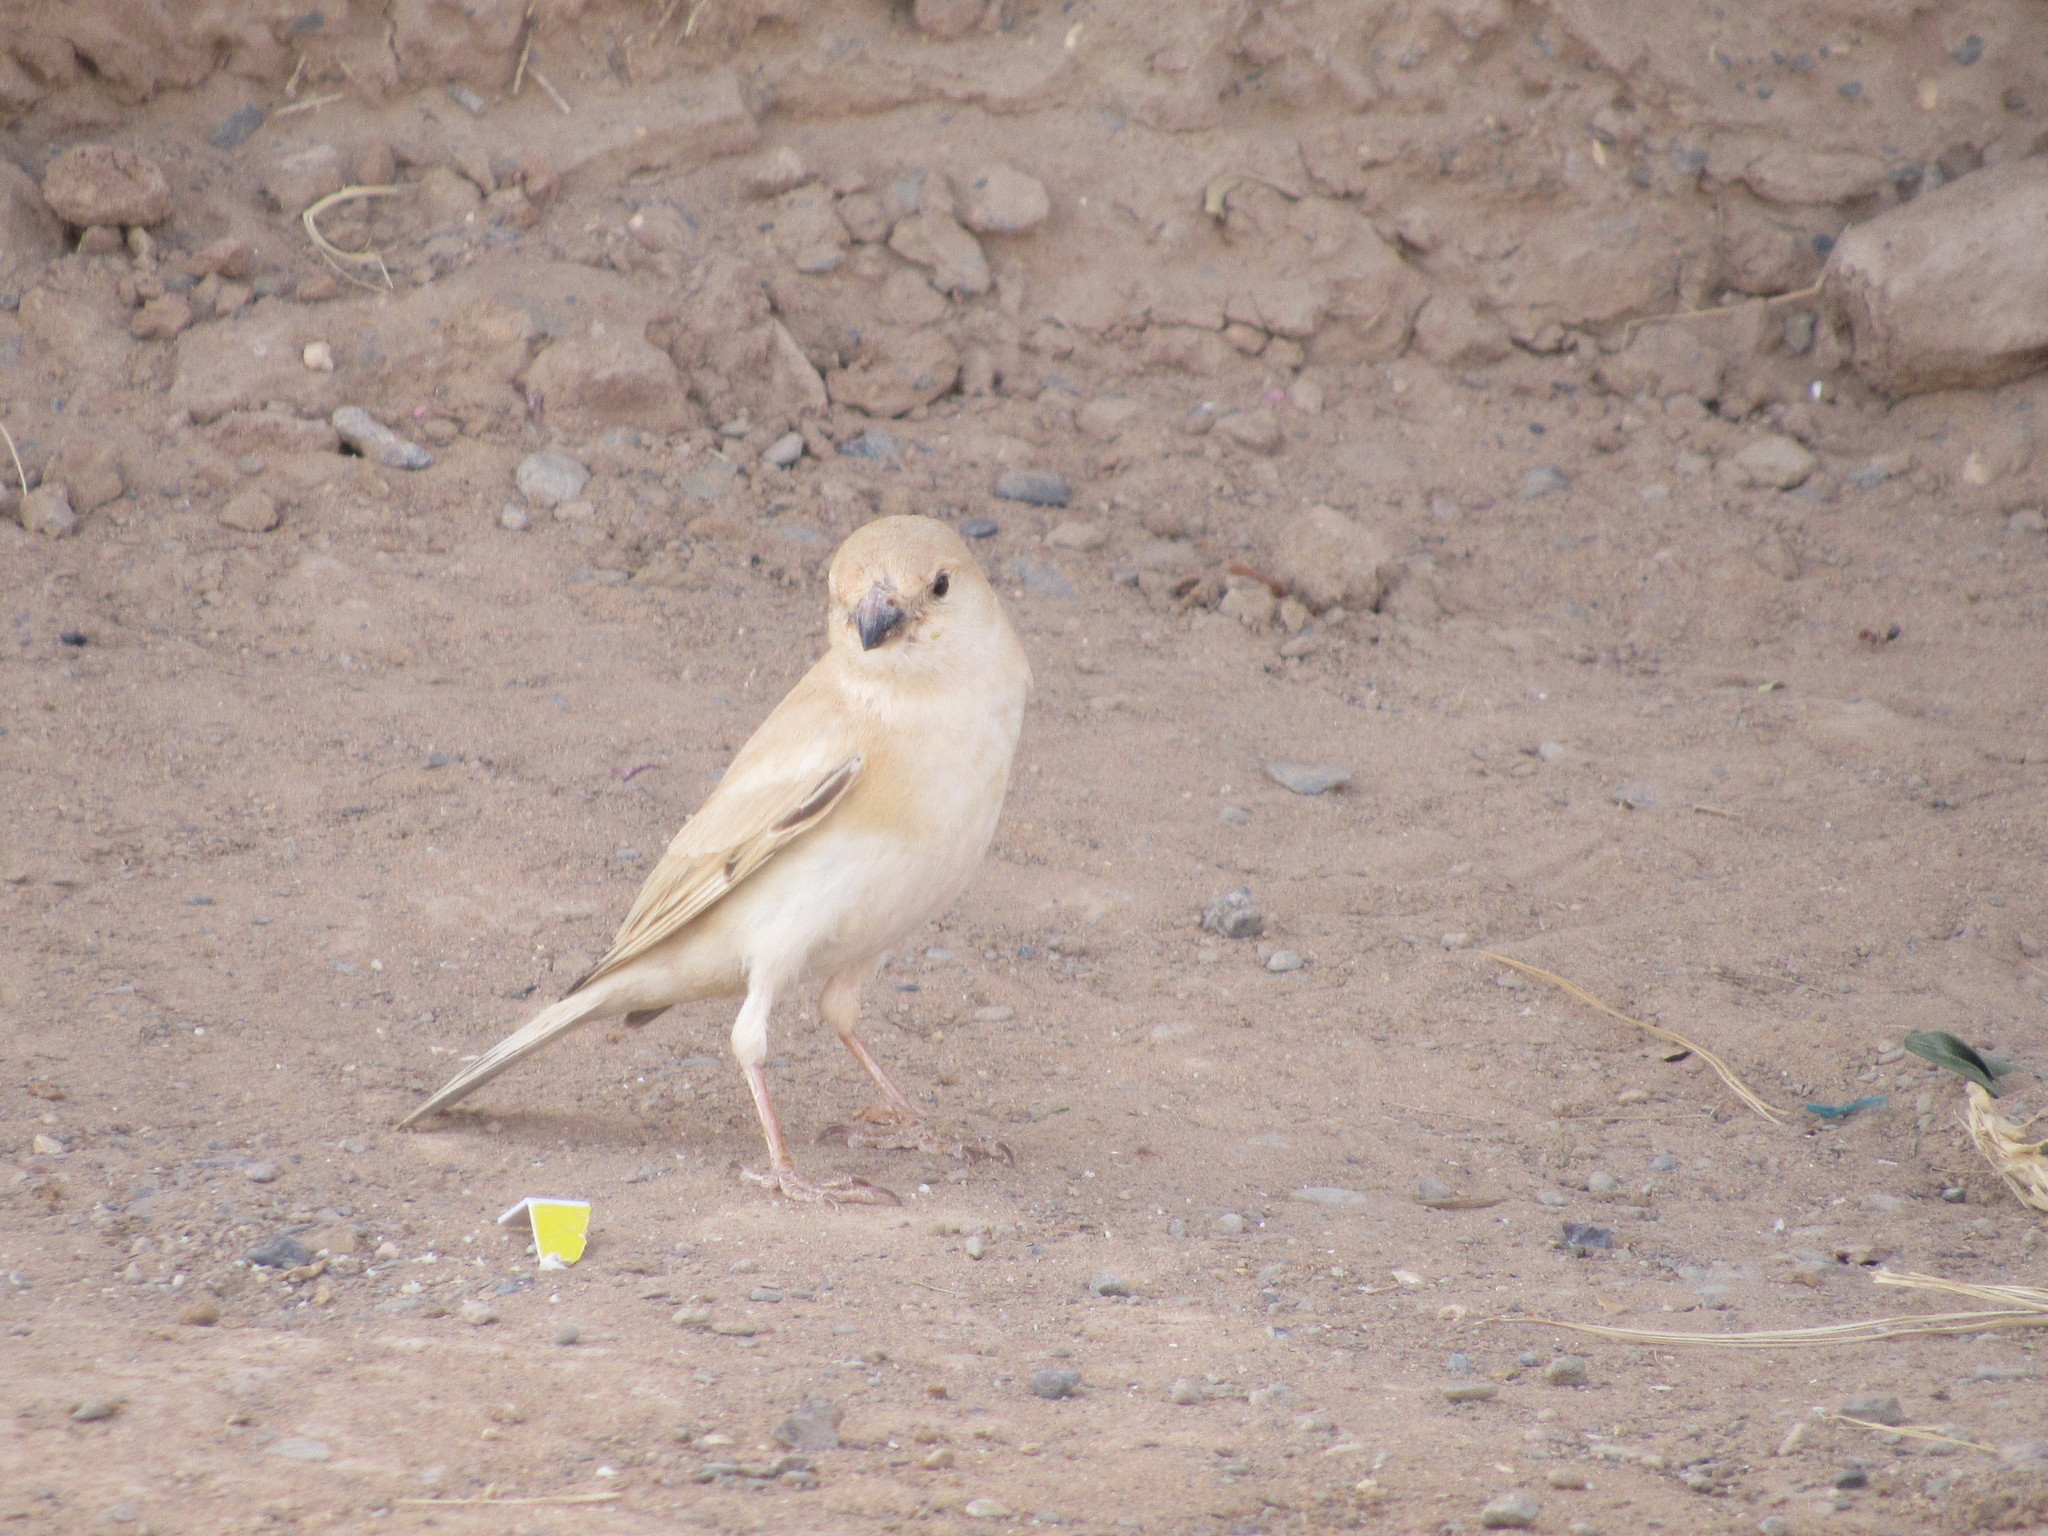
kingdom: Animalia
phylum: Chordata
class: Aves
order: Passeriformes
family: Passeridae
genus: Passer
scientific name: Passer simplex
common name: Desert sparrow
